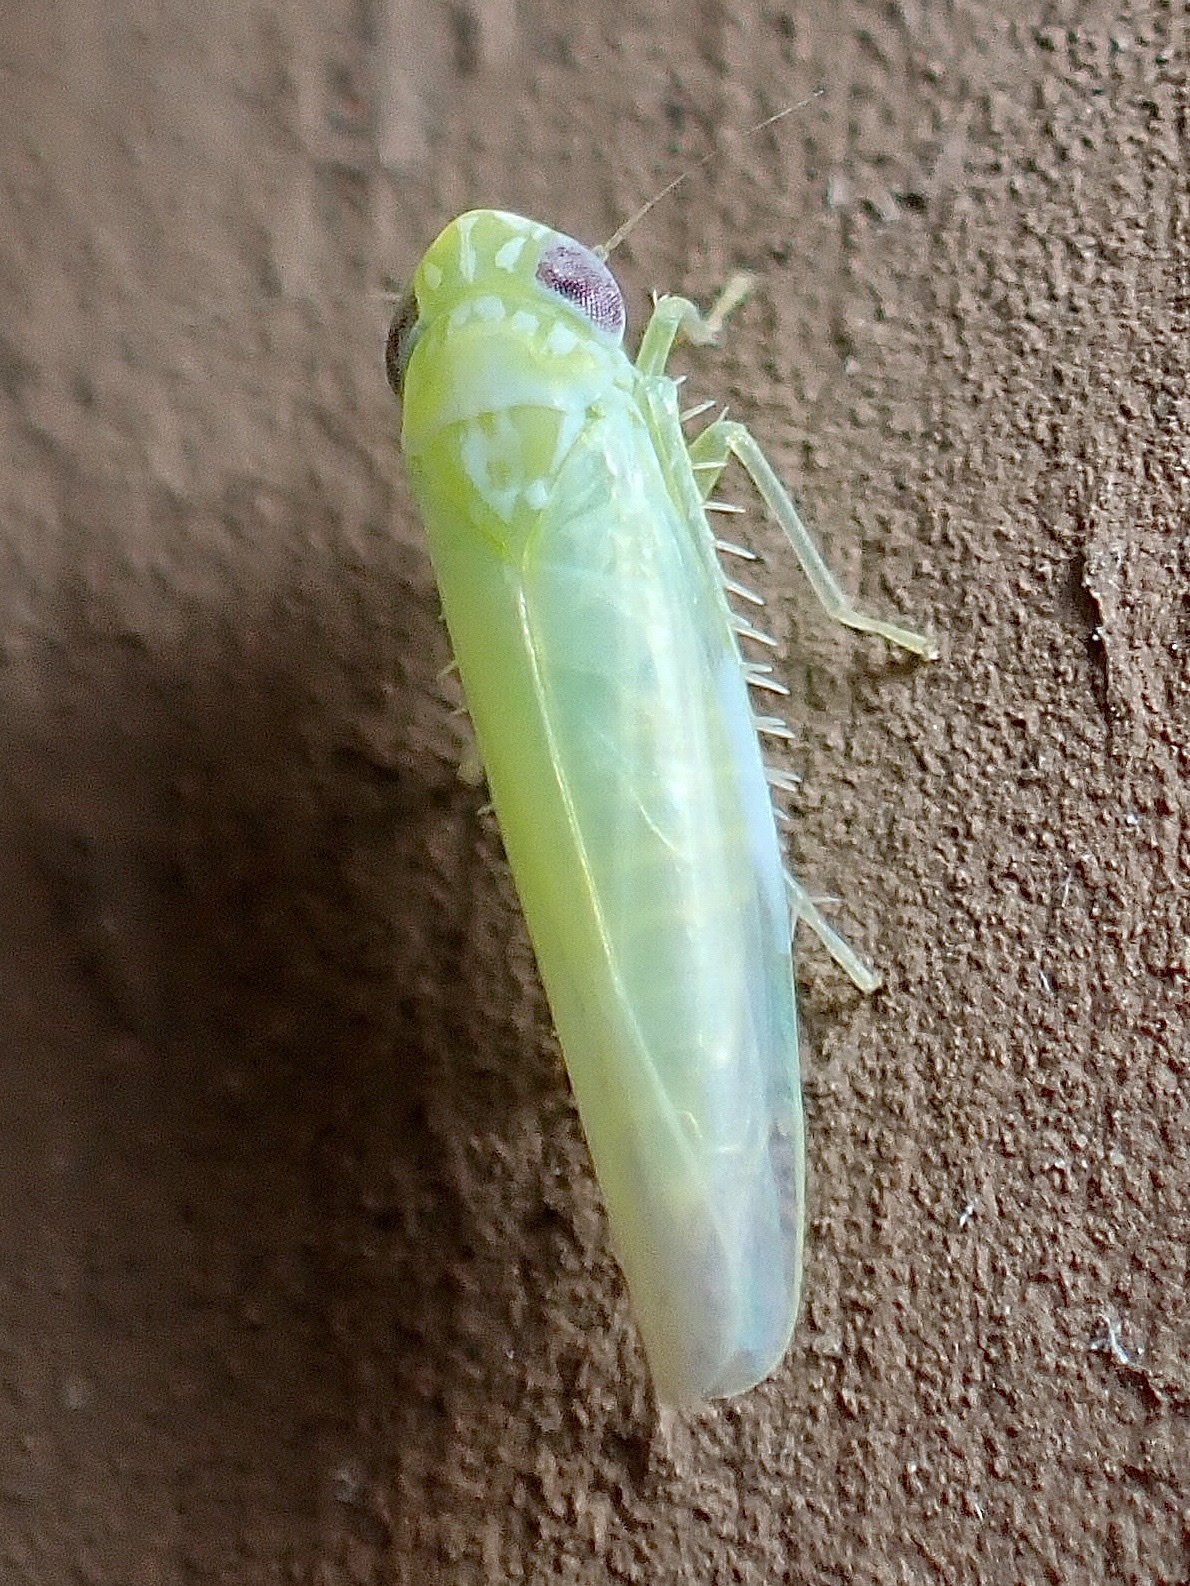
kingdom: Animalia
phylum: Arthropoda
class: Insecta
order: Hemiptera
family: Cicadellidae
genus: Empoasca
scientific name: Empoasca fabae
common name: Potato leafhopper
